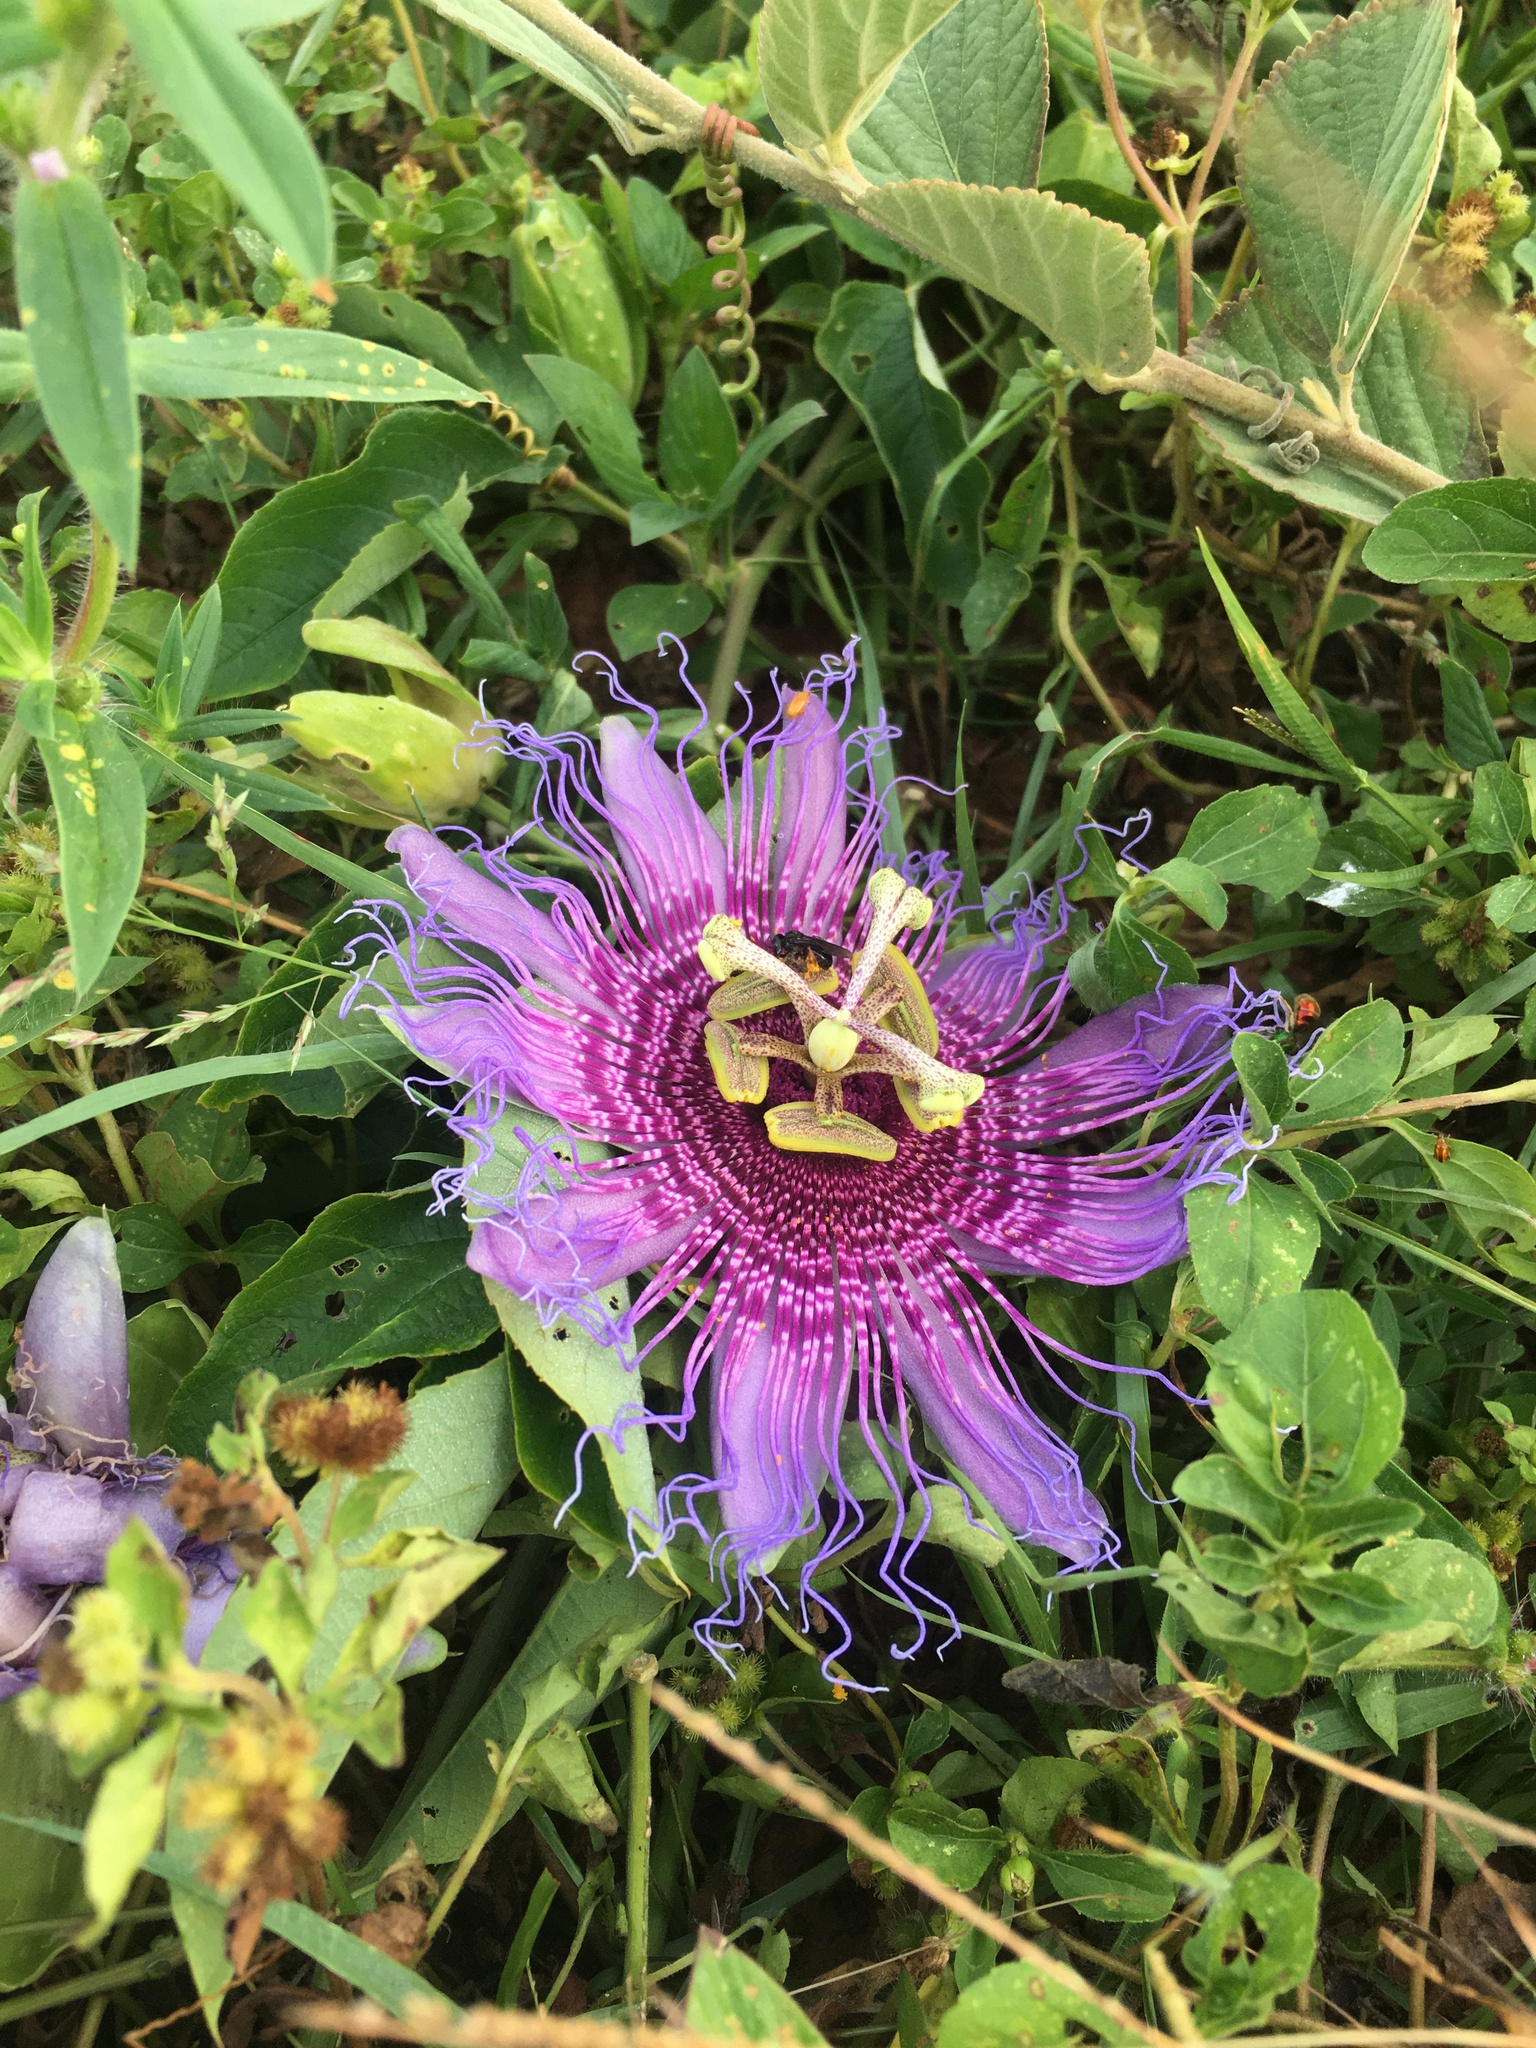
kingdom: Plantae
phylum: Tracheophyta
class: Magnoliopsida
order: Malpighiales
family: Passifloraceae
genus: Passiflora
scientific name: Passiflora cincinnata
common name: Crato passionvine
